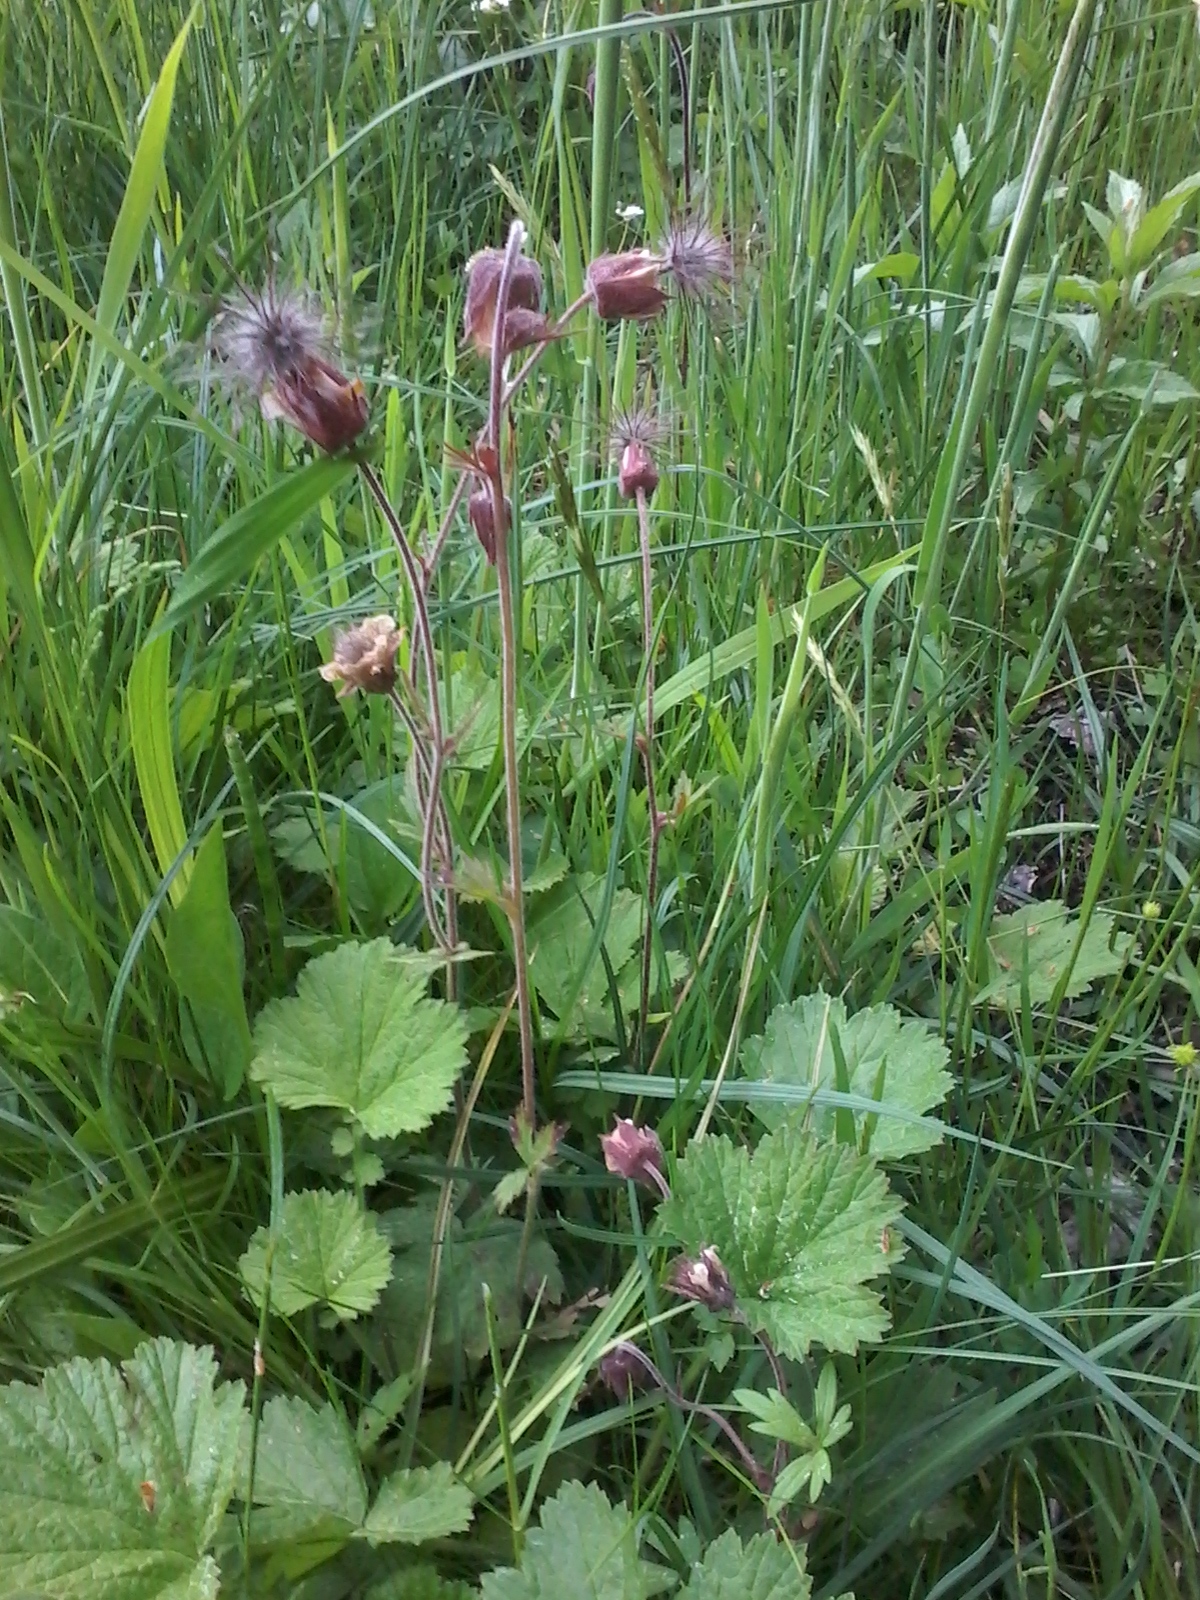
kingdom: Plantae
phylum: Tracheophyta
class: Magnoliopsida
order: Rosales
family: Rosaceae
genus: Geum
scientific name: Geum rivale
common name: Water avens
